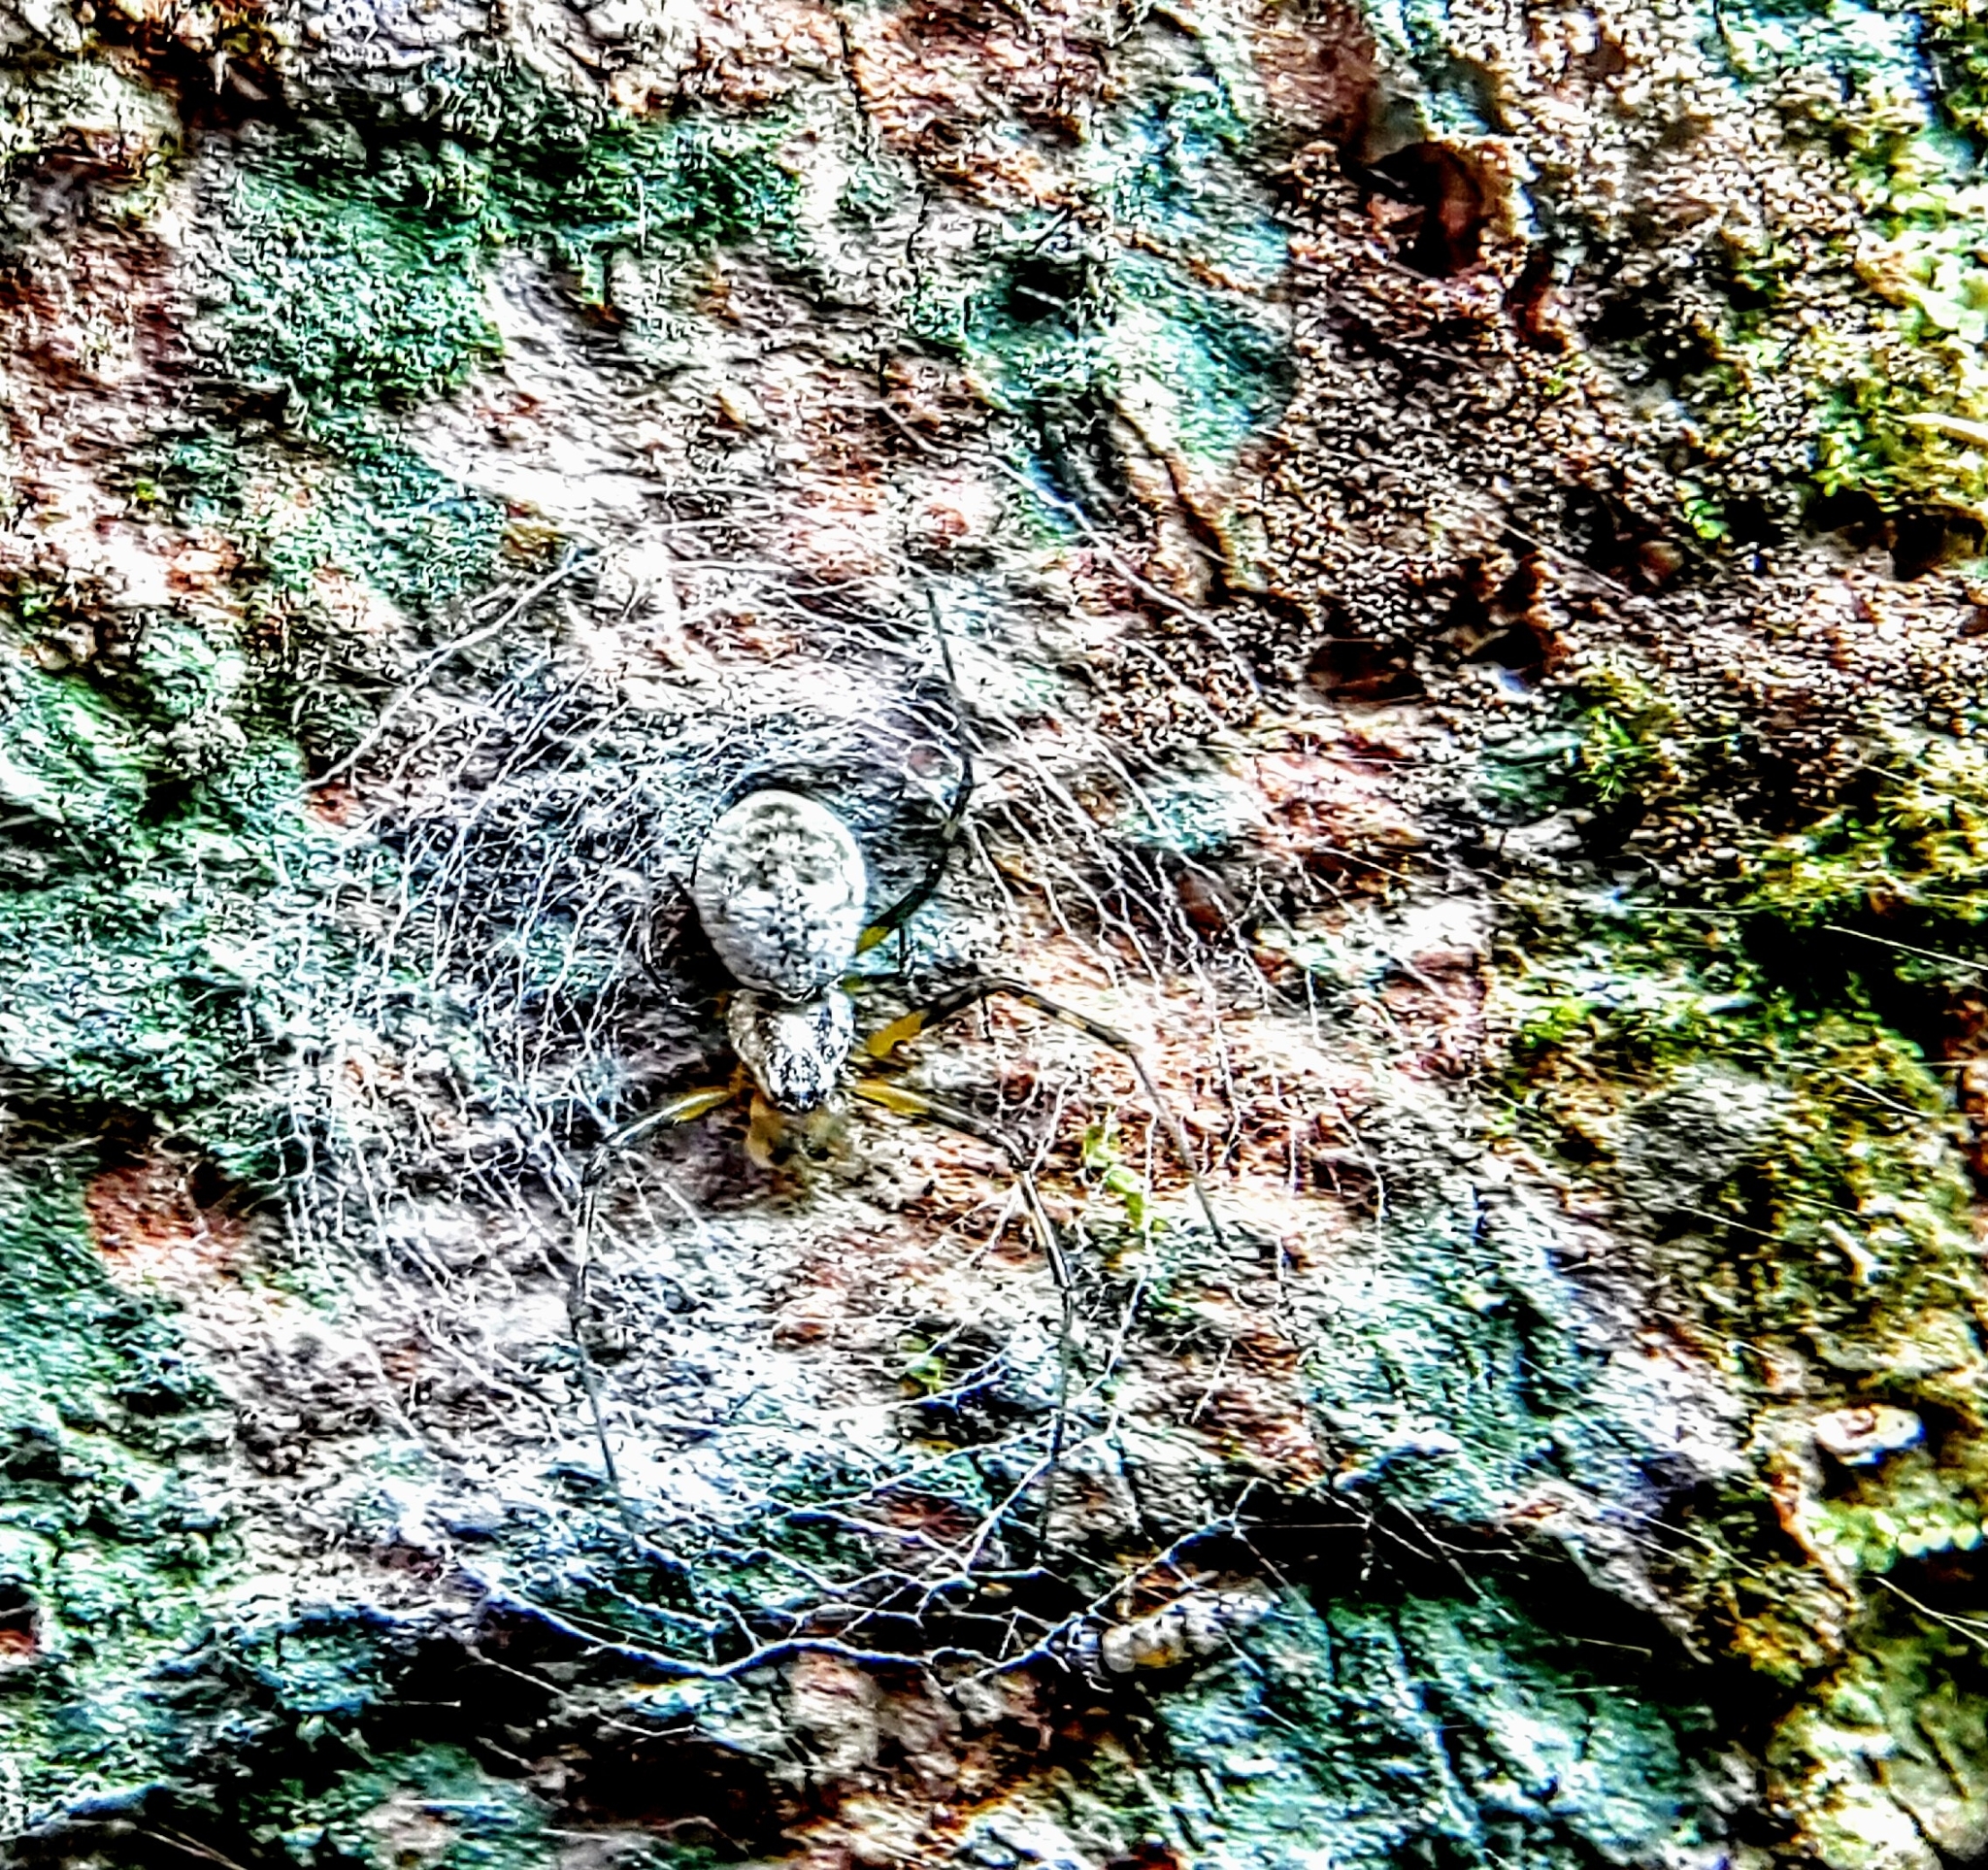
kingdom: Animalia
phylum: Arthropoda
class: Arachnida
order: Araneae
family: Araneidae
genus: Herennia
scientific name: Herennia multipuncta
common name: Spotted coin spider
